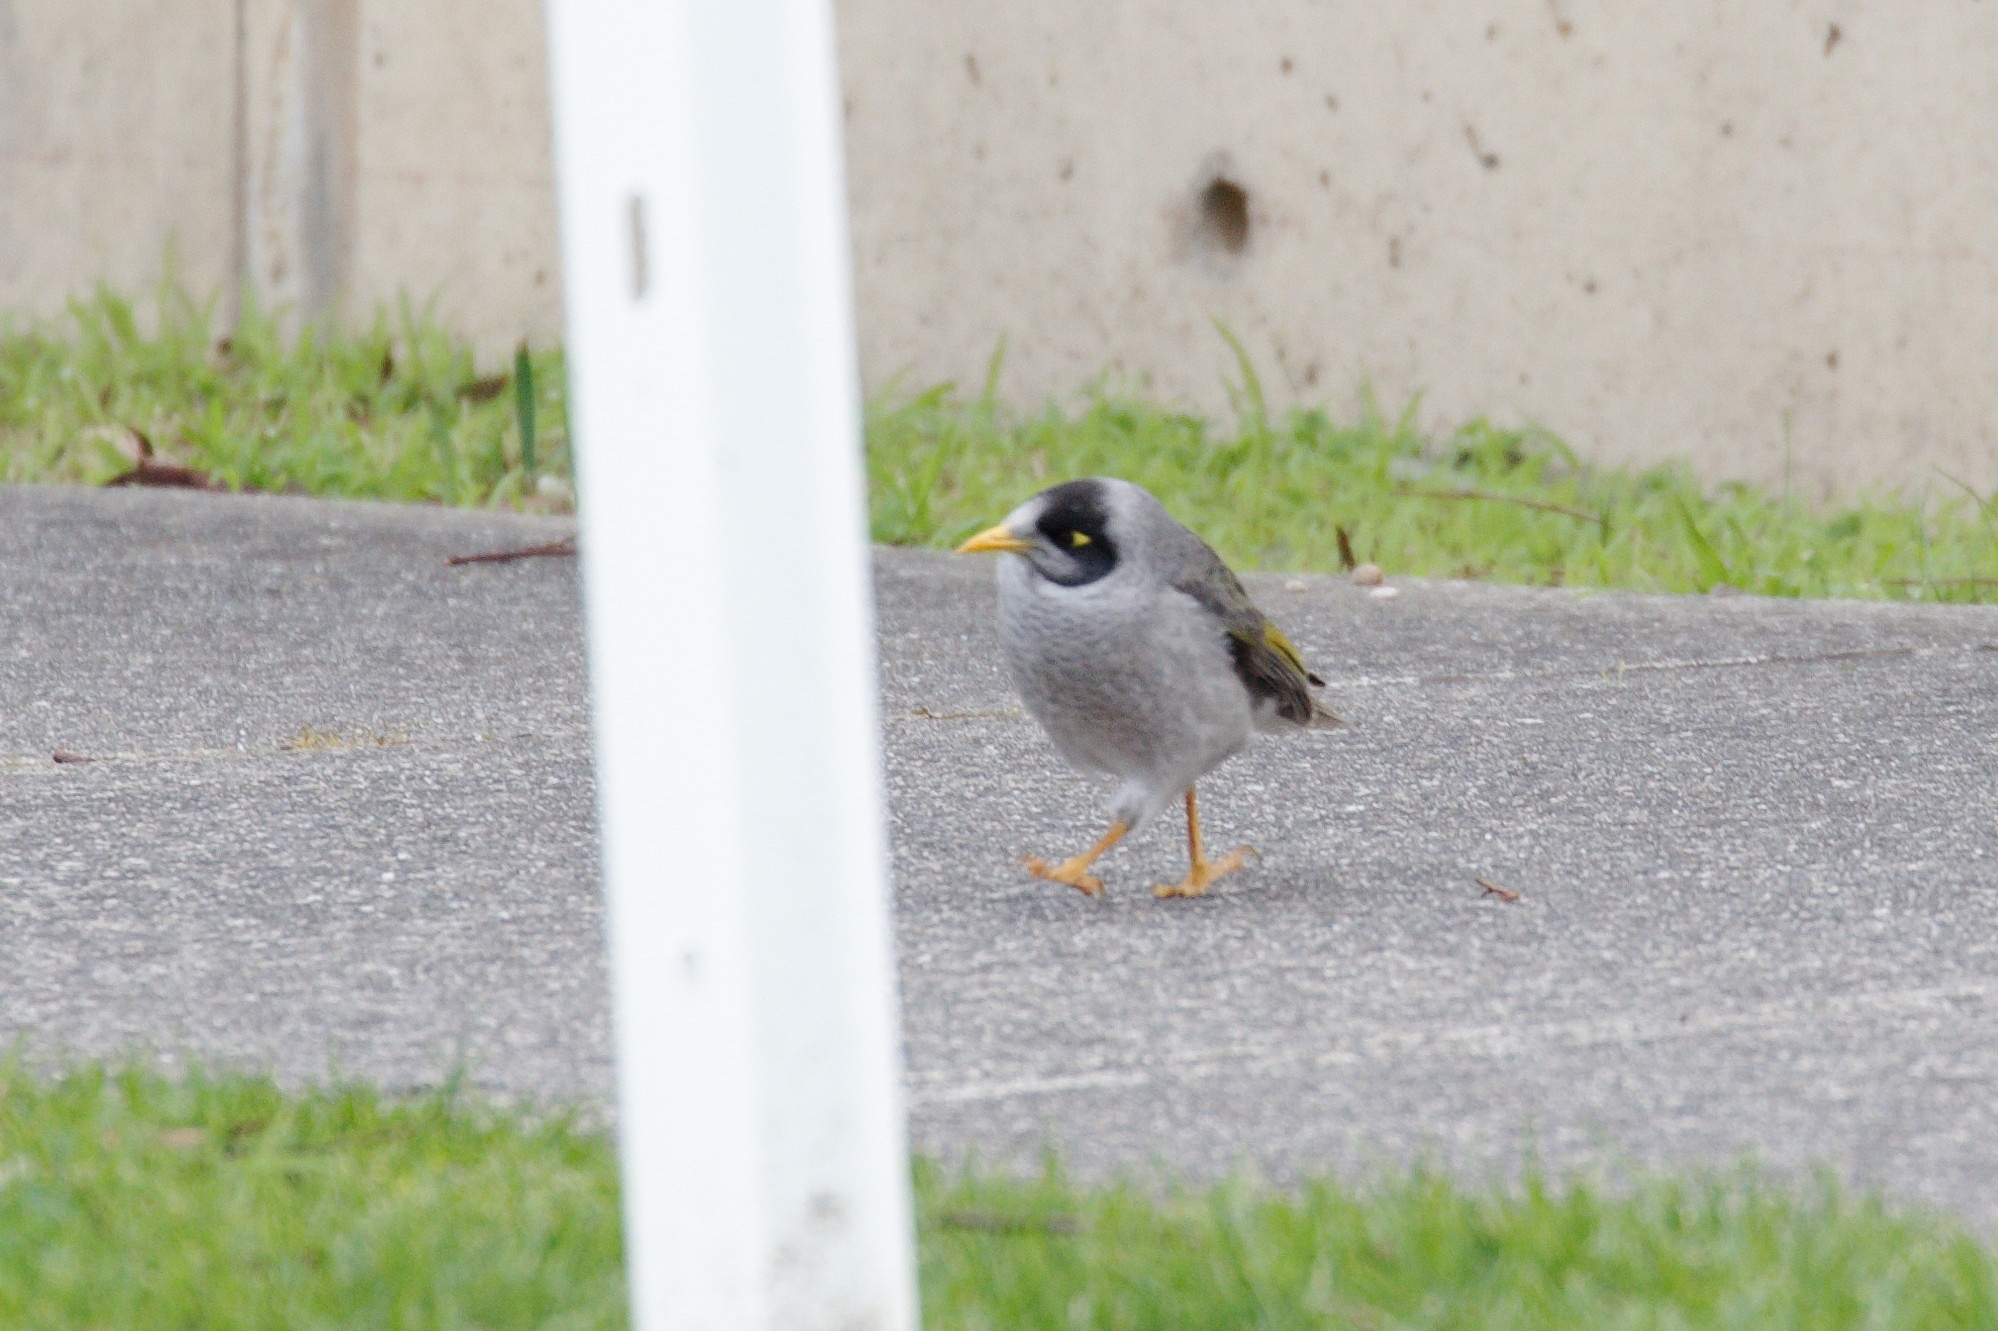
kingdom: Animalia
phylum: Chordata
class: Aves
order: Passeriformes
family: Meliphagidae
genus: Manorina
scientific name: Manorina melanocephala
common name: Noisy miner
